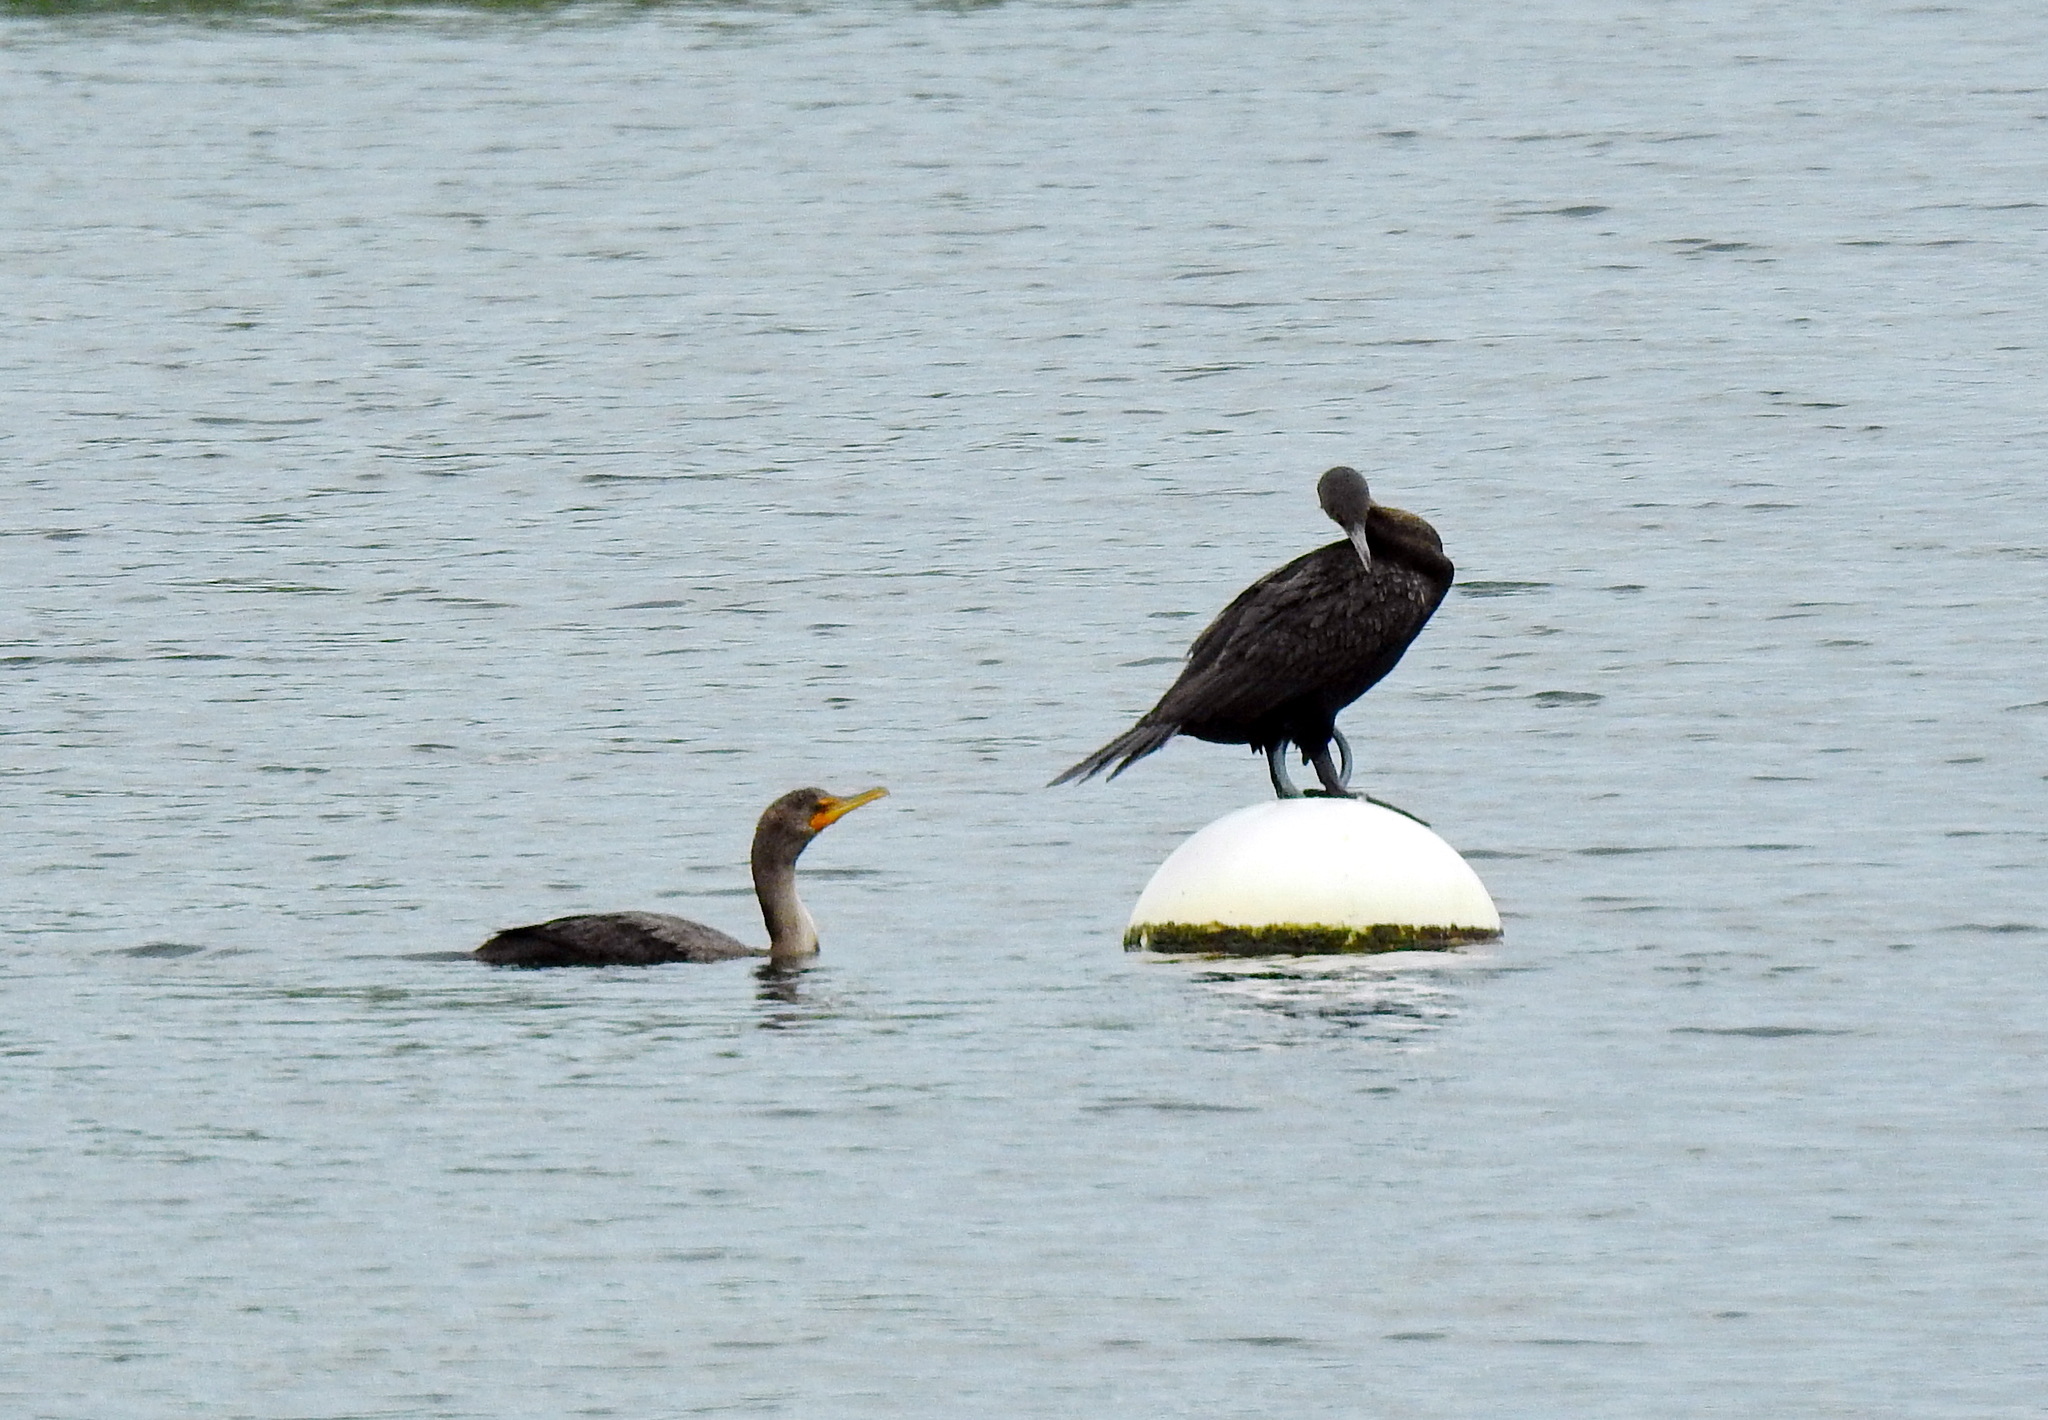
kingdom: Animalia
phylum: Chordata
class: Aves
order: Suliformes
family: Phalacrocoracidae
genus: Phalacrocorax
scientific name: Phalacrocorax auritus
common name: Double-crested cormorant
